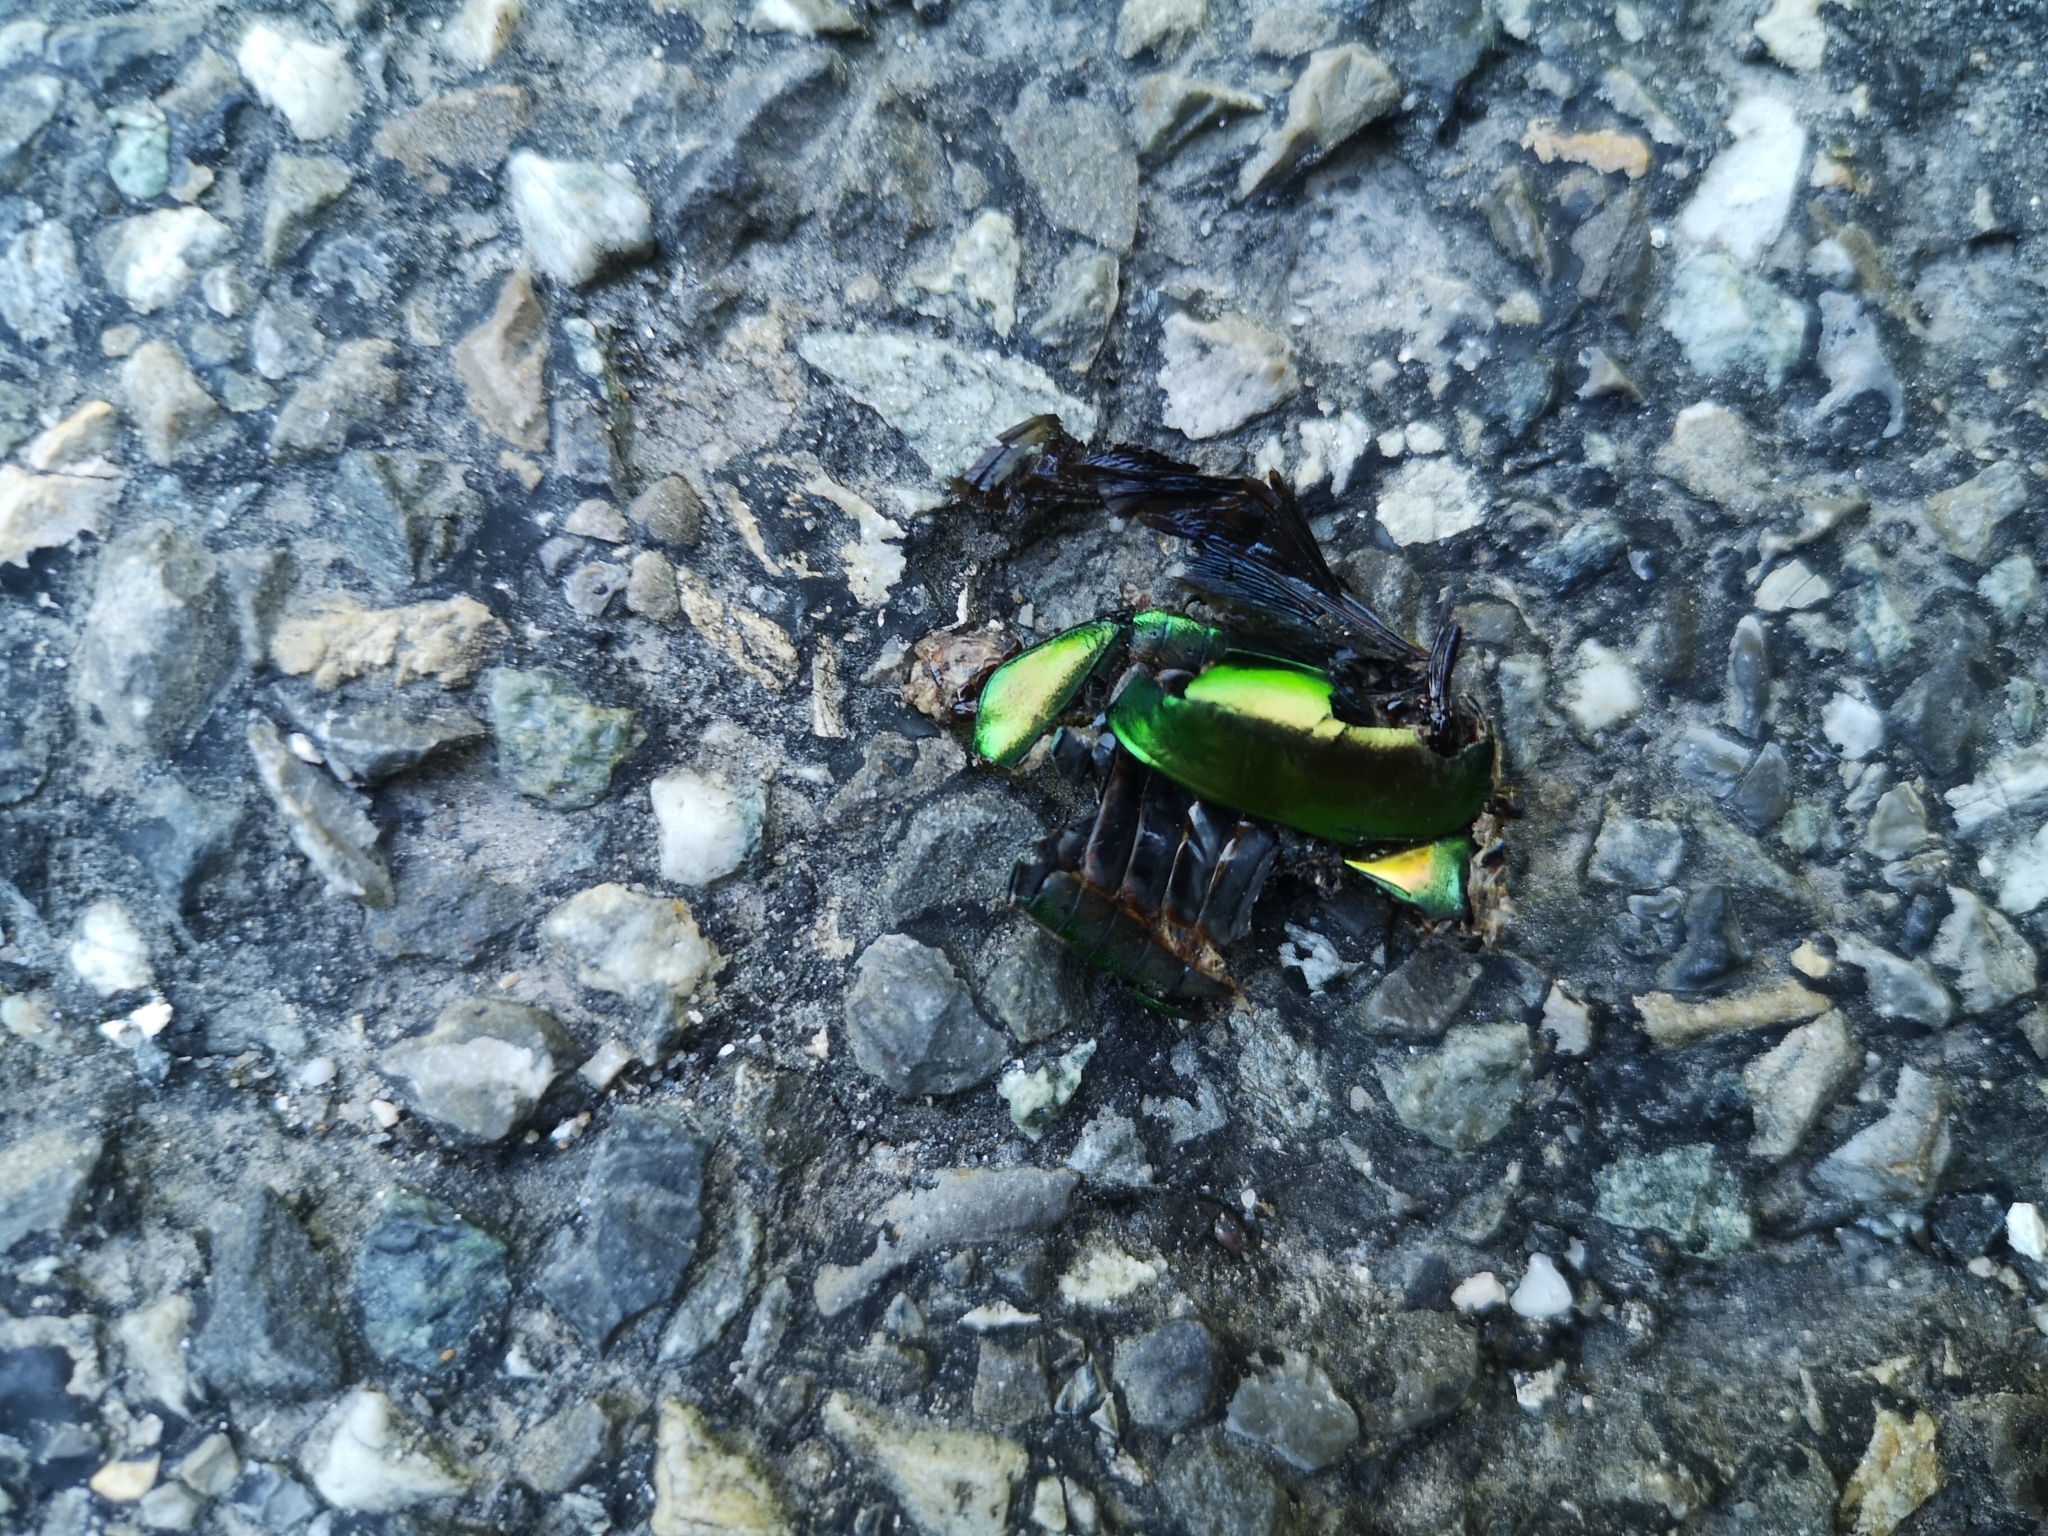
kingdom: Animalia
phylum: Arthropoda
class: Insecta
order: Coleoptera
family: Scarabaeidae
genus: Protaetia
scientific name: Protaetia speciosissima
